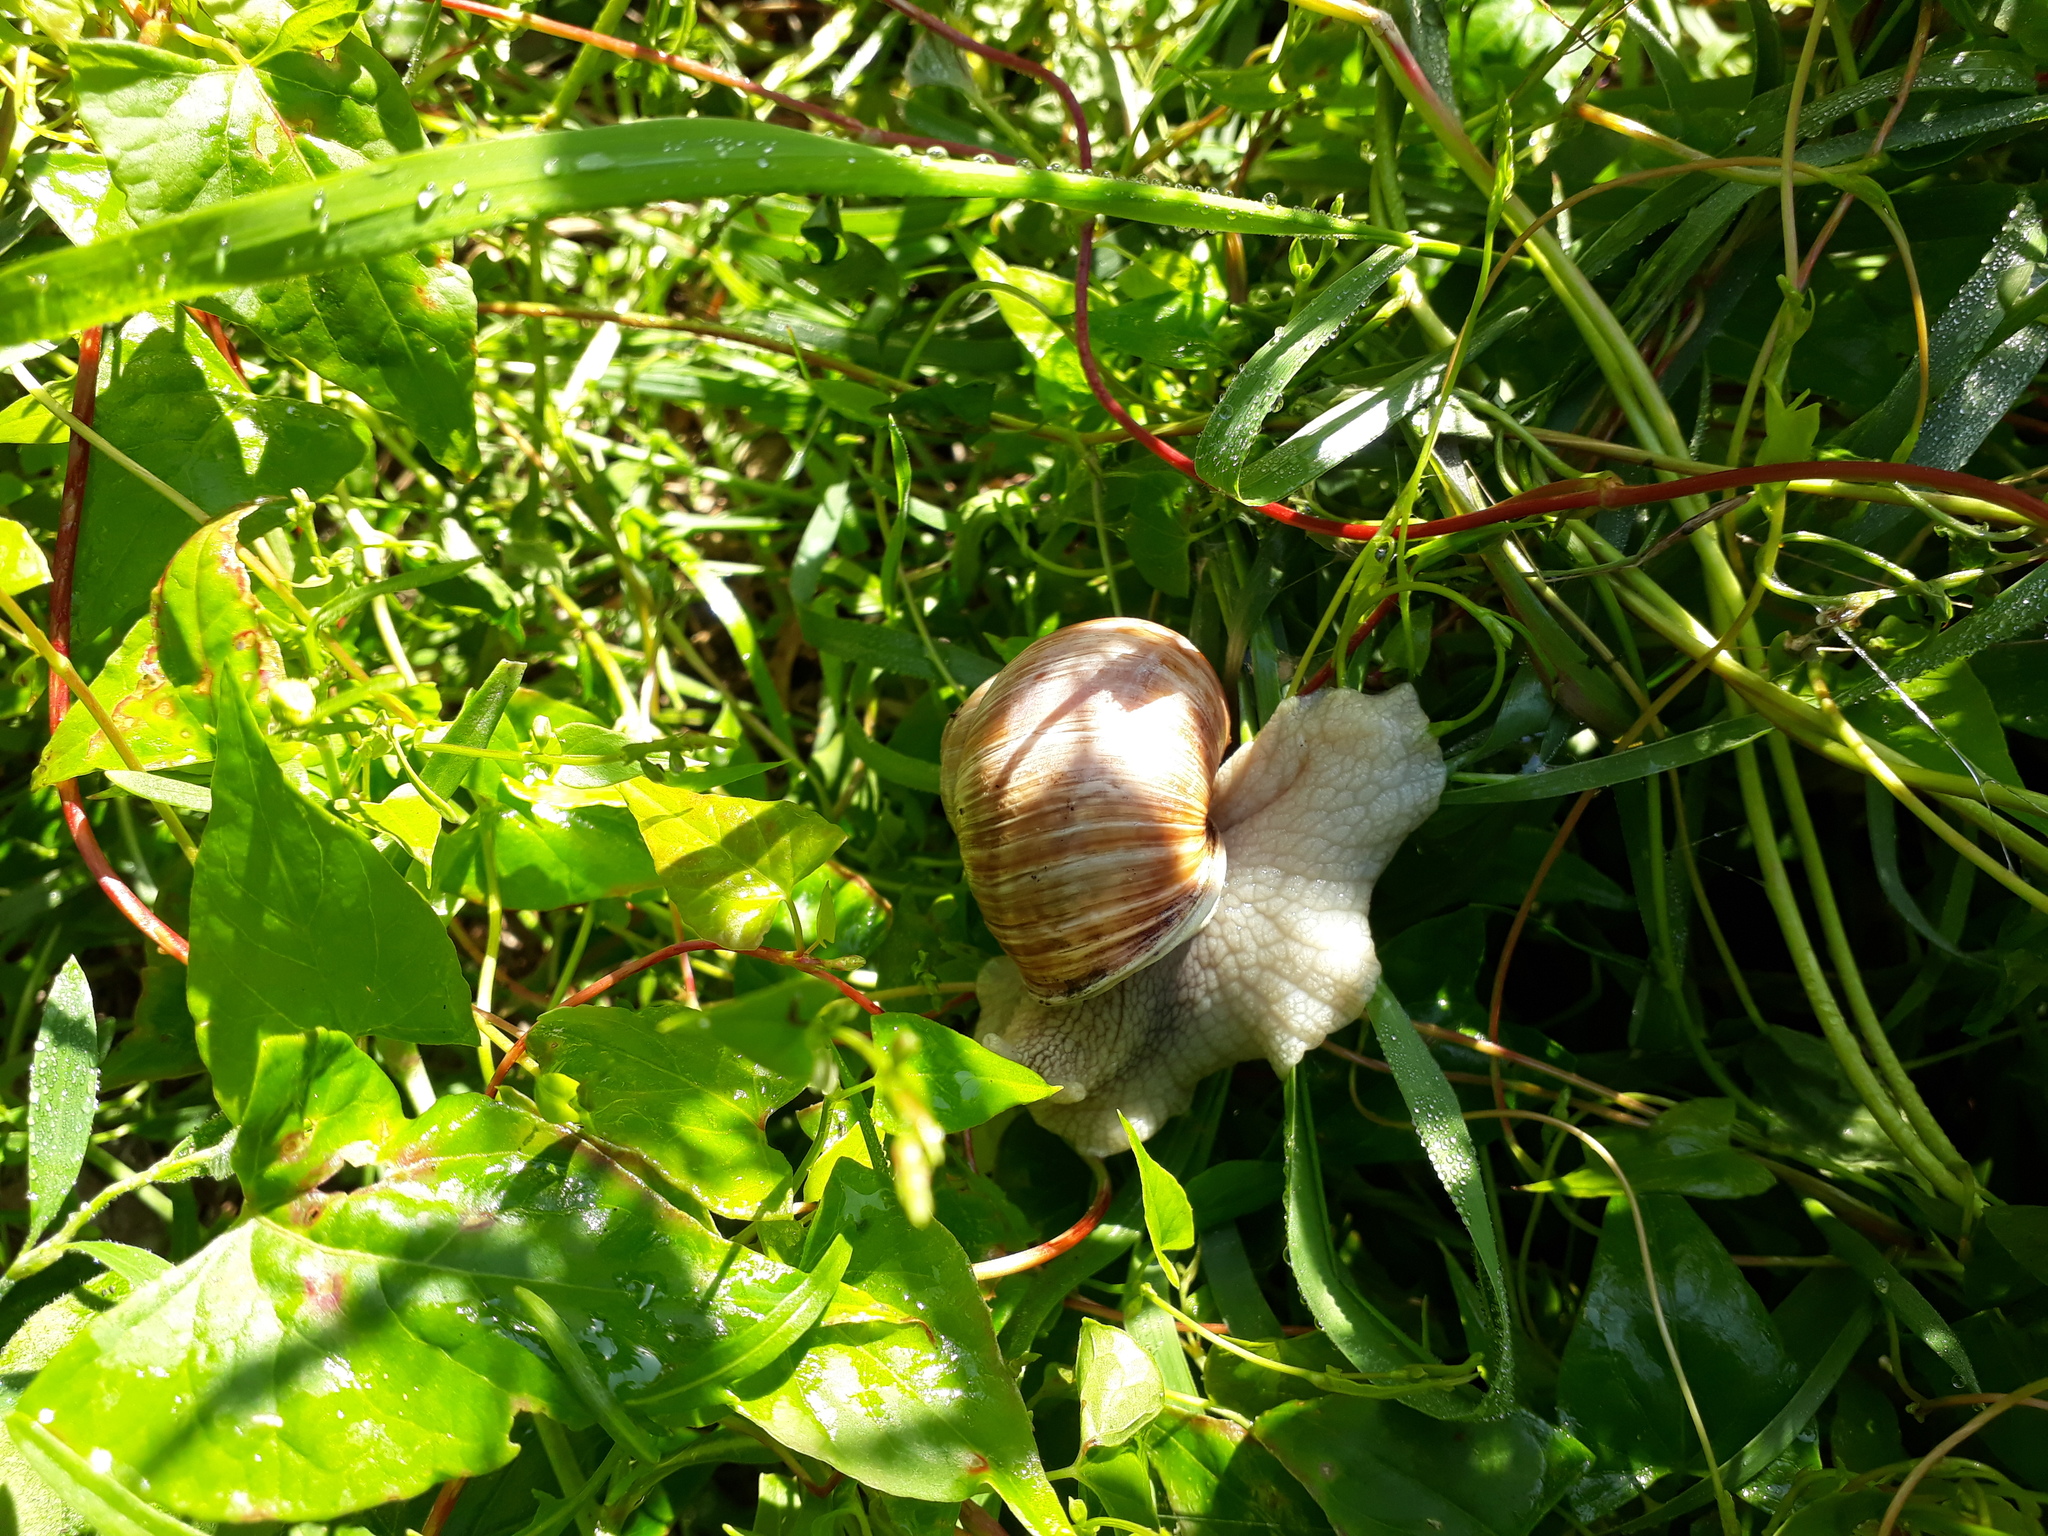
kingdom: Animalia
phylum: Mollusca
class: Gastropoda
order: Stylommatophora
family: Helicidae
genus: Helix
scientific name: Helix pomatia
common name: Roman snail
